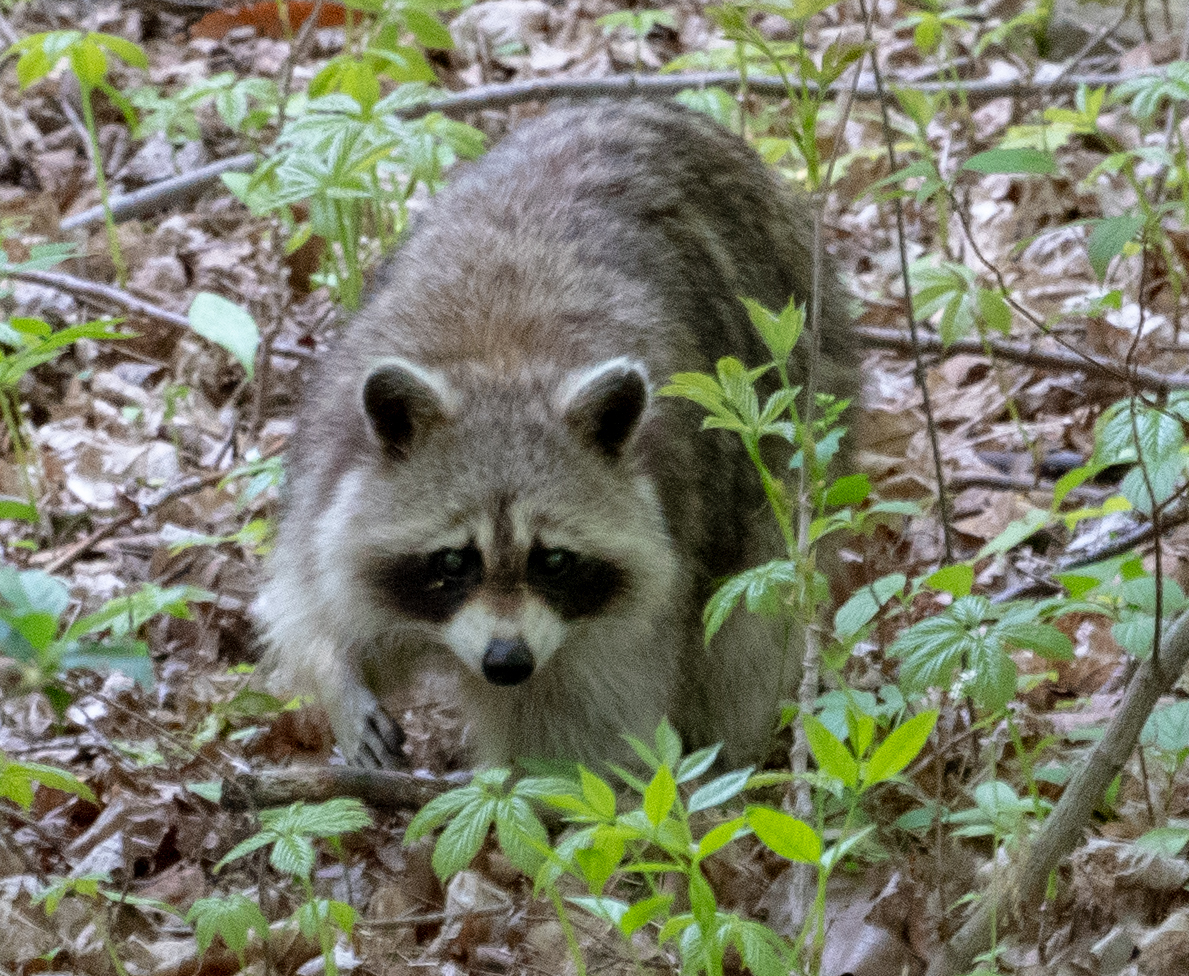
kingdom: Animalia
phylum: Chordata
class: Mammalia
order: Carnivora
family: Procyonidae
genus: Procyon
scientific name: Procyon lotor
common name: Raccoon
